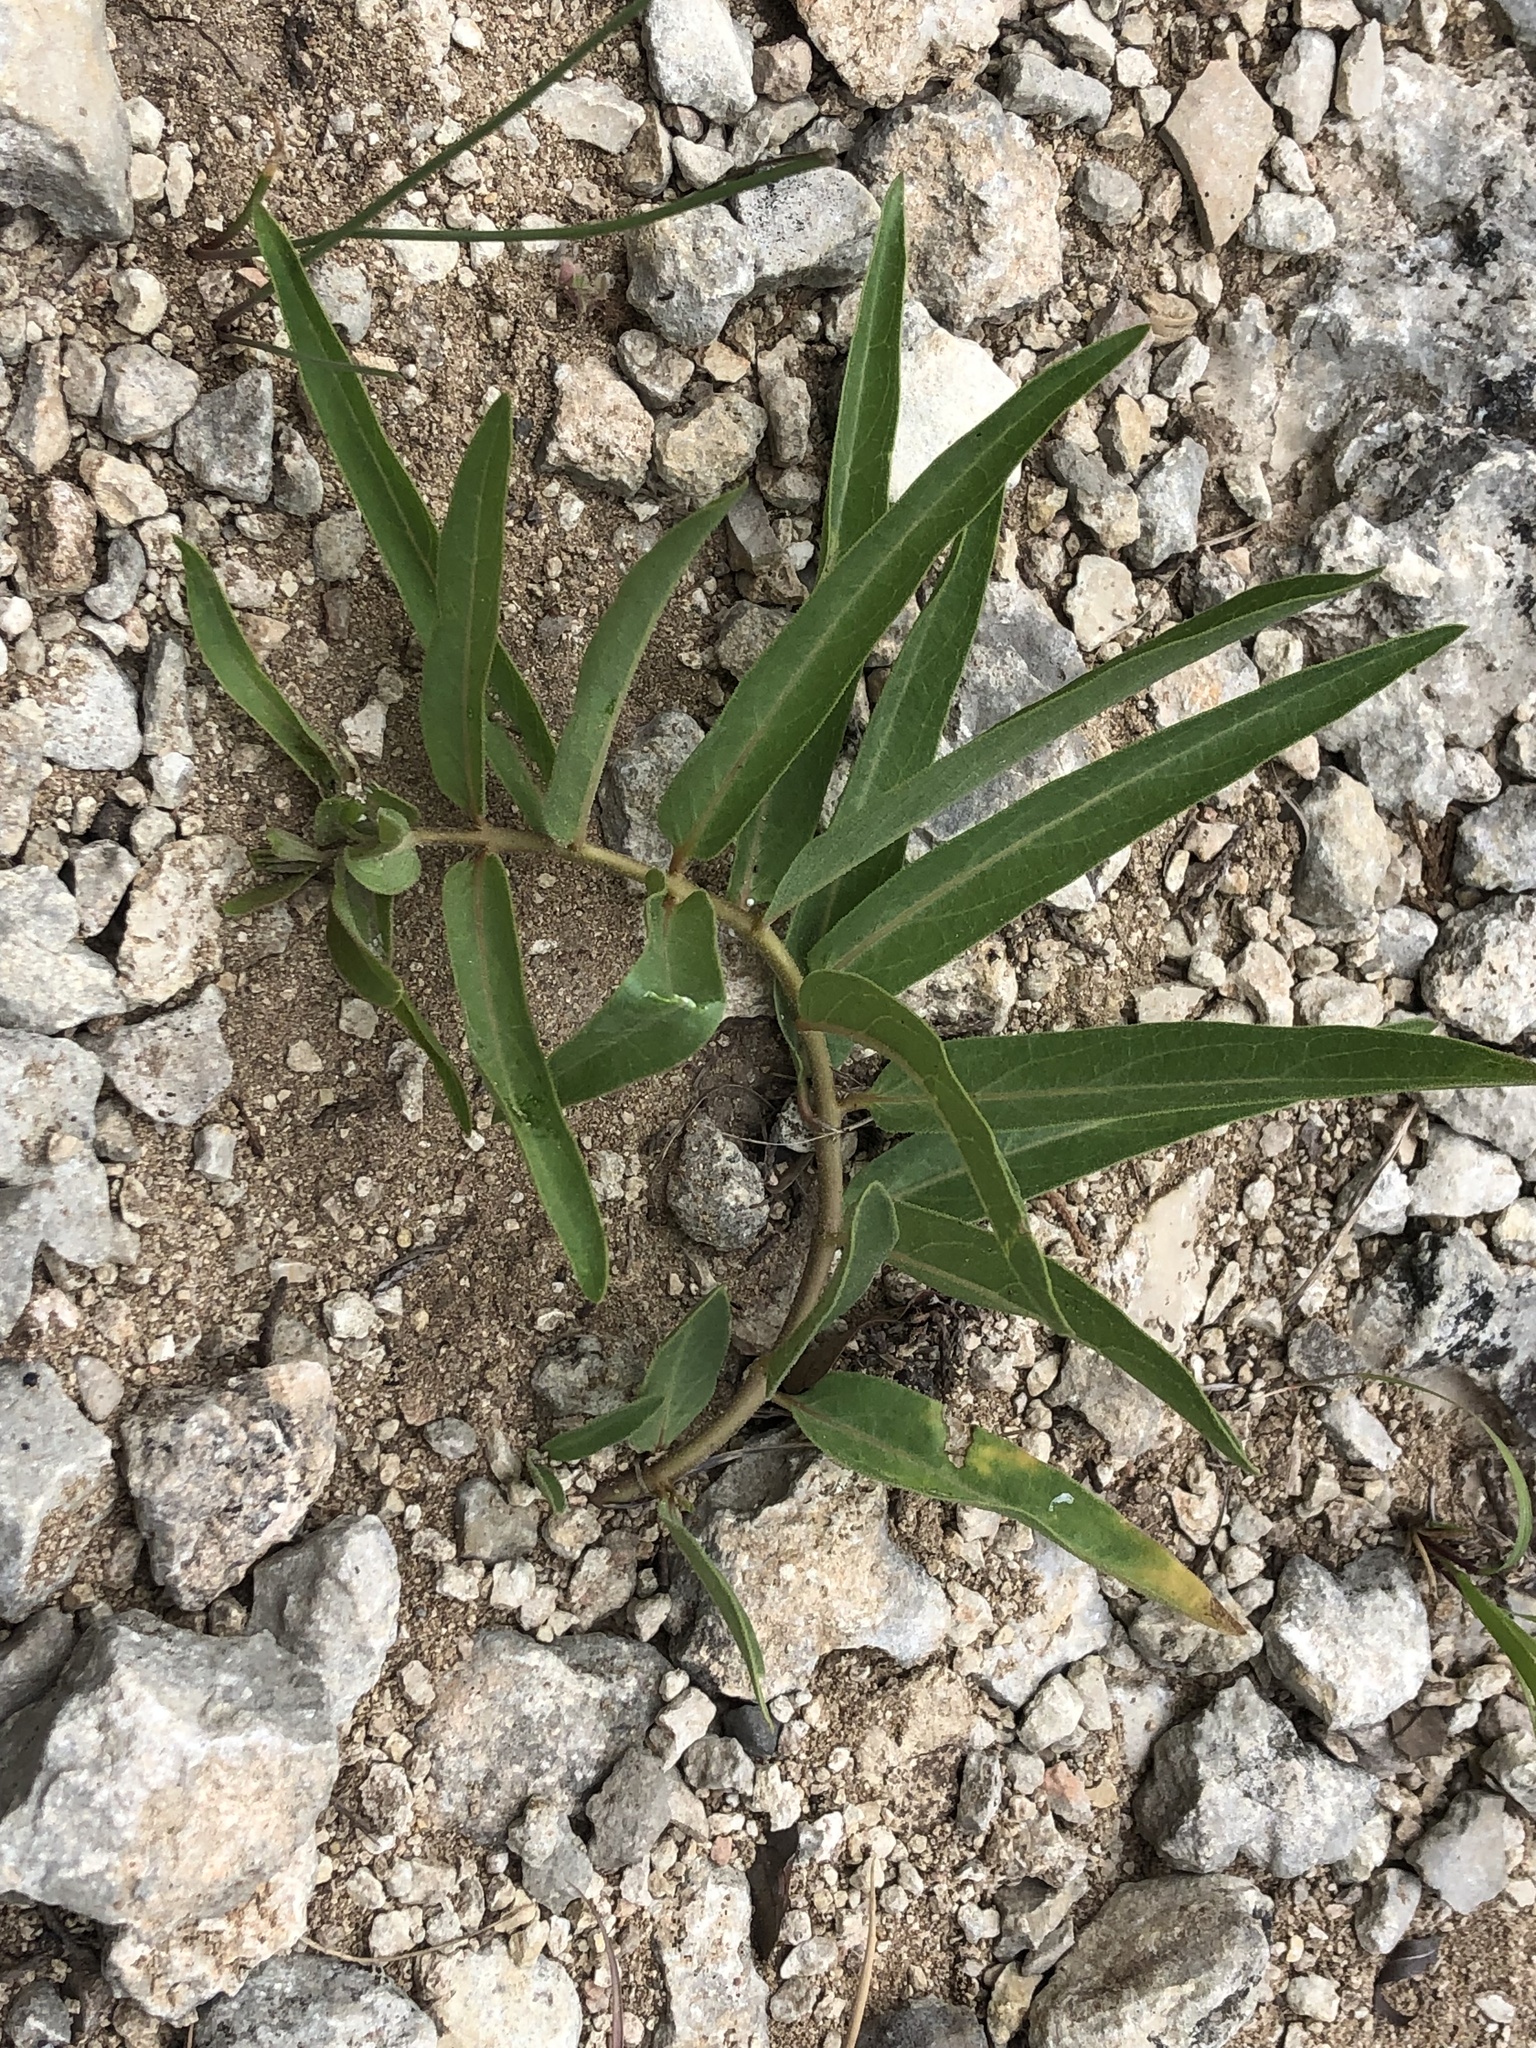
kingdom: Plantae
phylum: Tracheophyta
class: Magnoliopsida
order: Gentianales
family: Apocynaceae
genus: Asclepias
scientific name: Asclepias asperula
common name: Antelope horns
